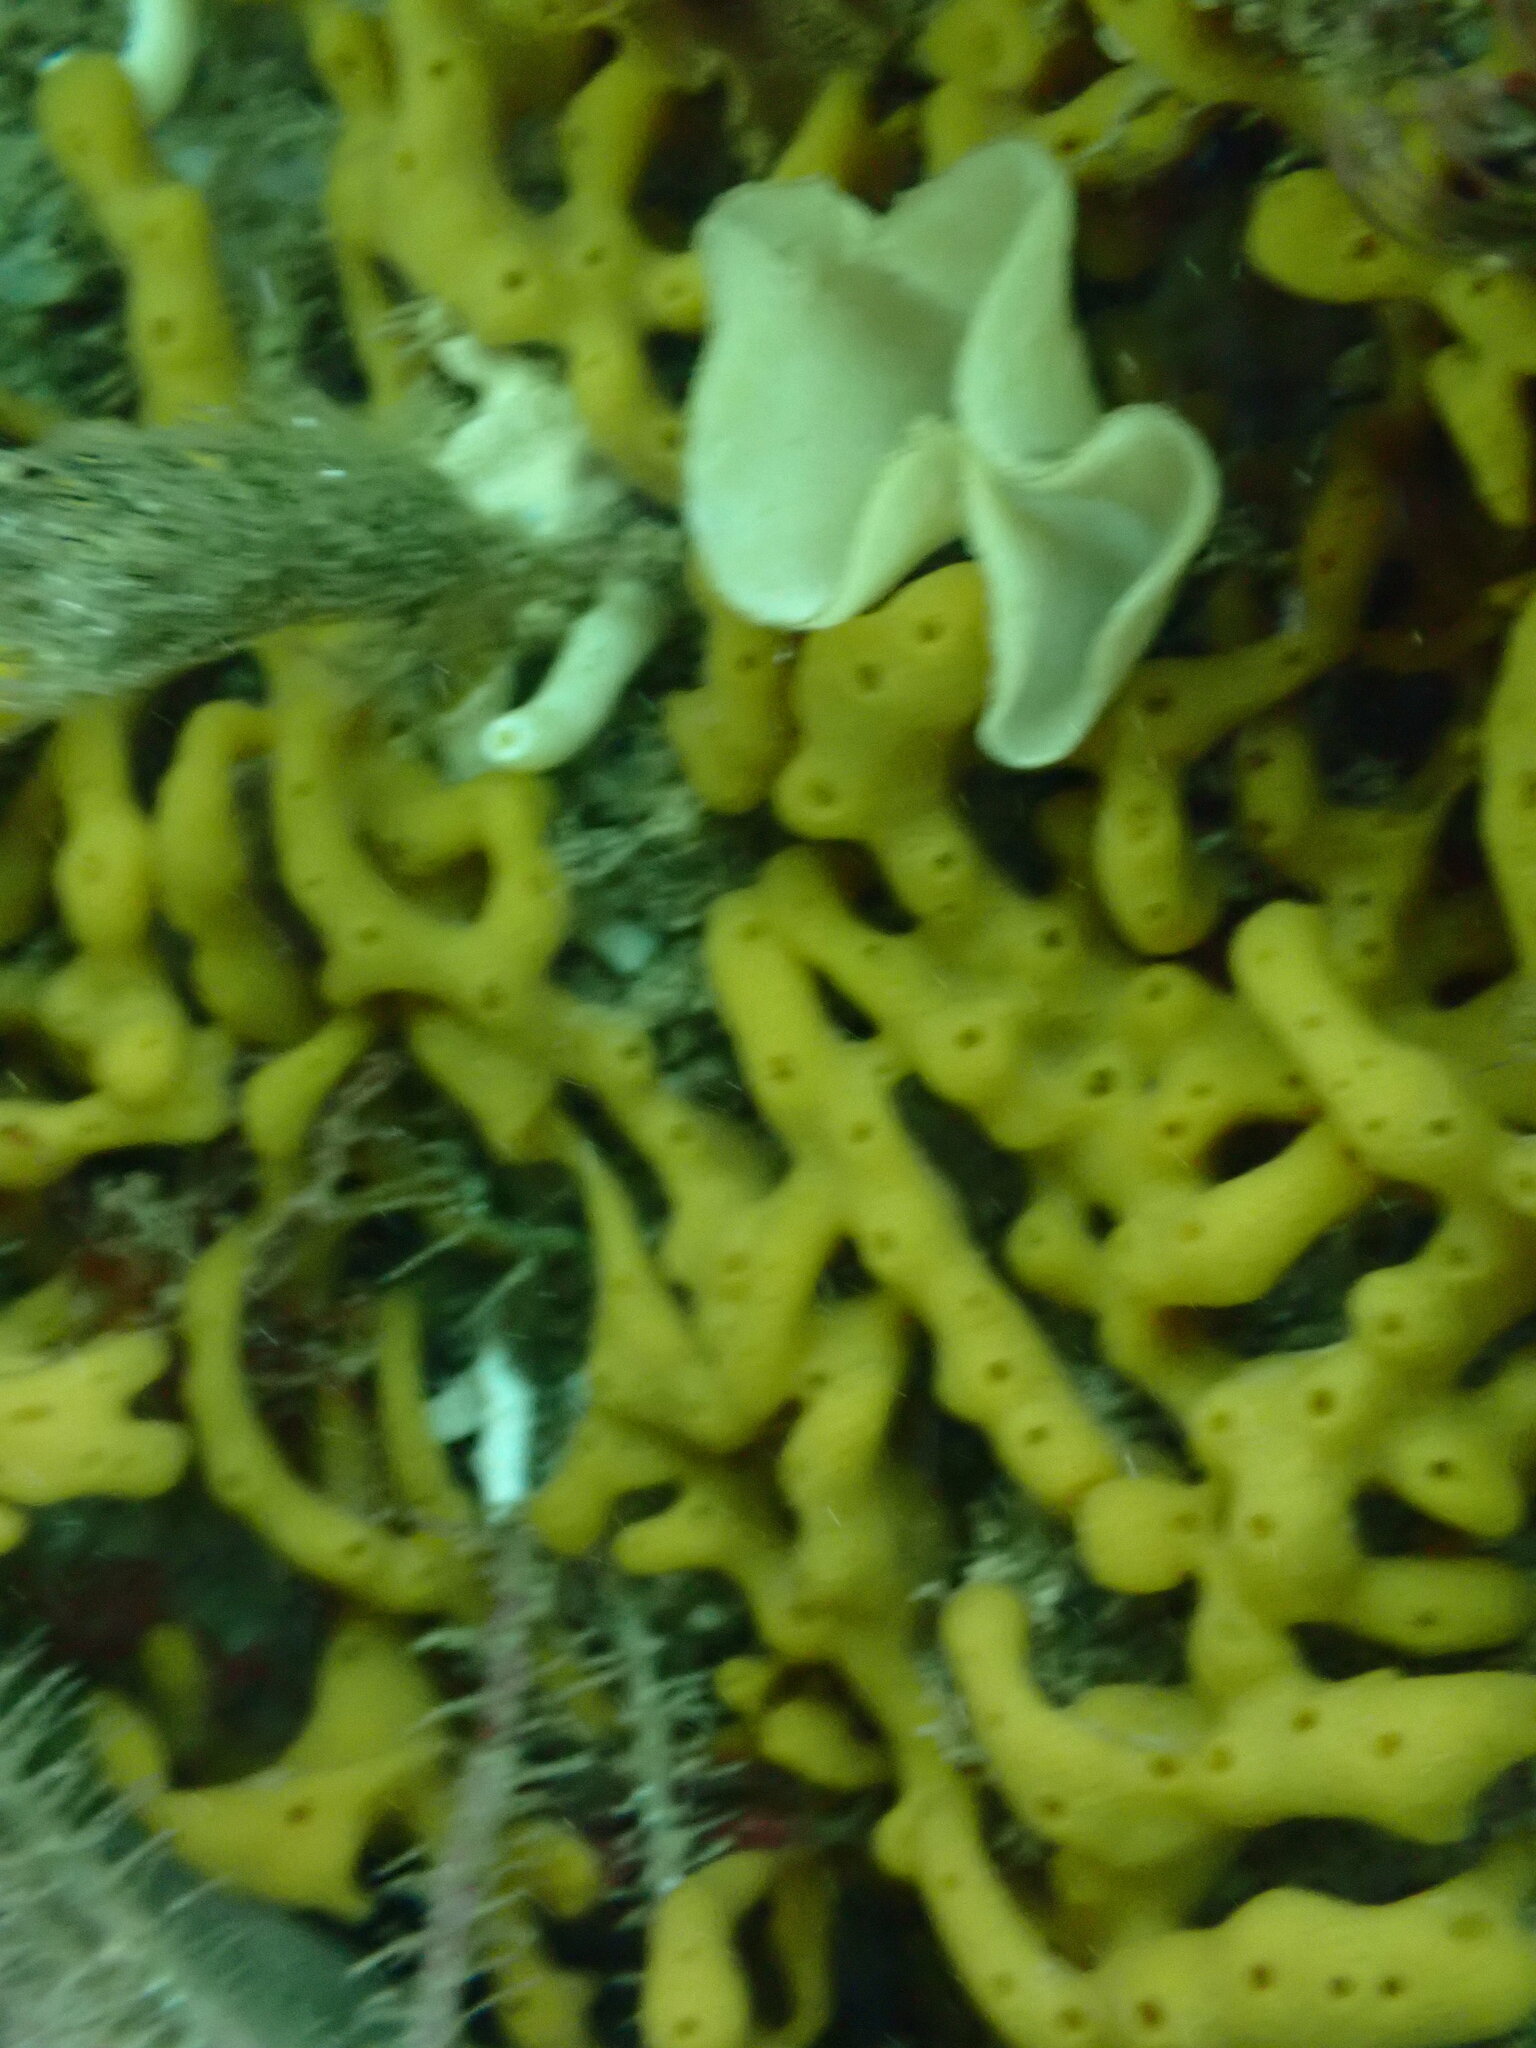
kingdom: Animalia
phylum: Porifera
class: Calcarea
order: Leucosolenida
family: Grantiidae
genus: Teichonopsis
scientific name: Teichonopsis labyrinthica
